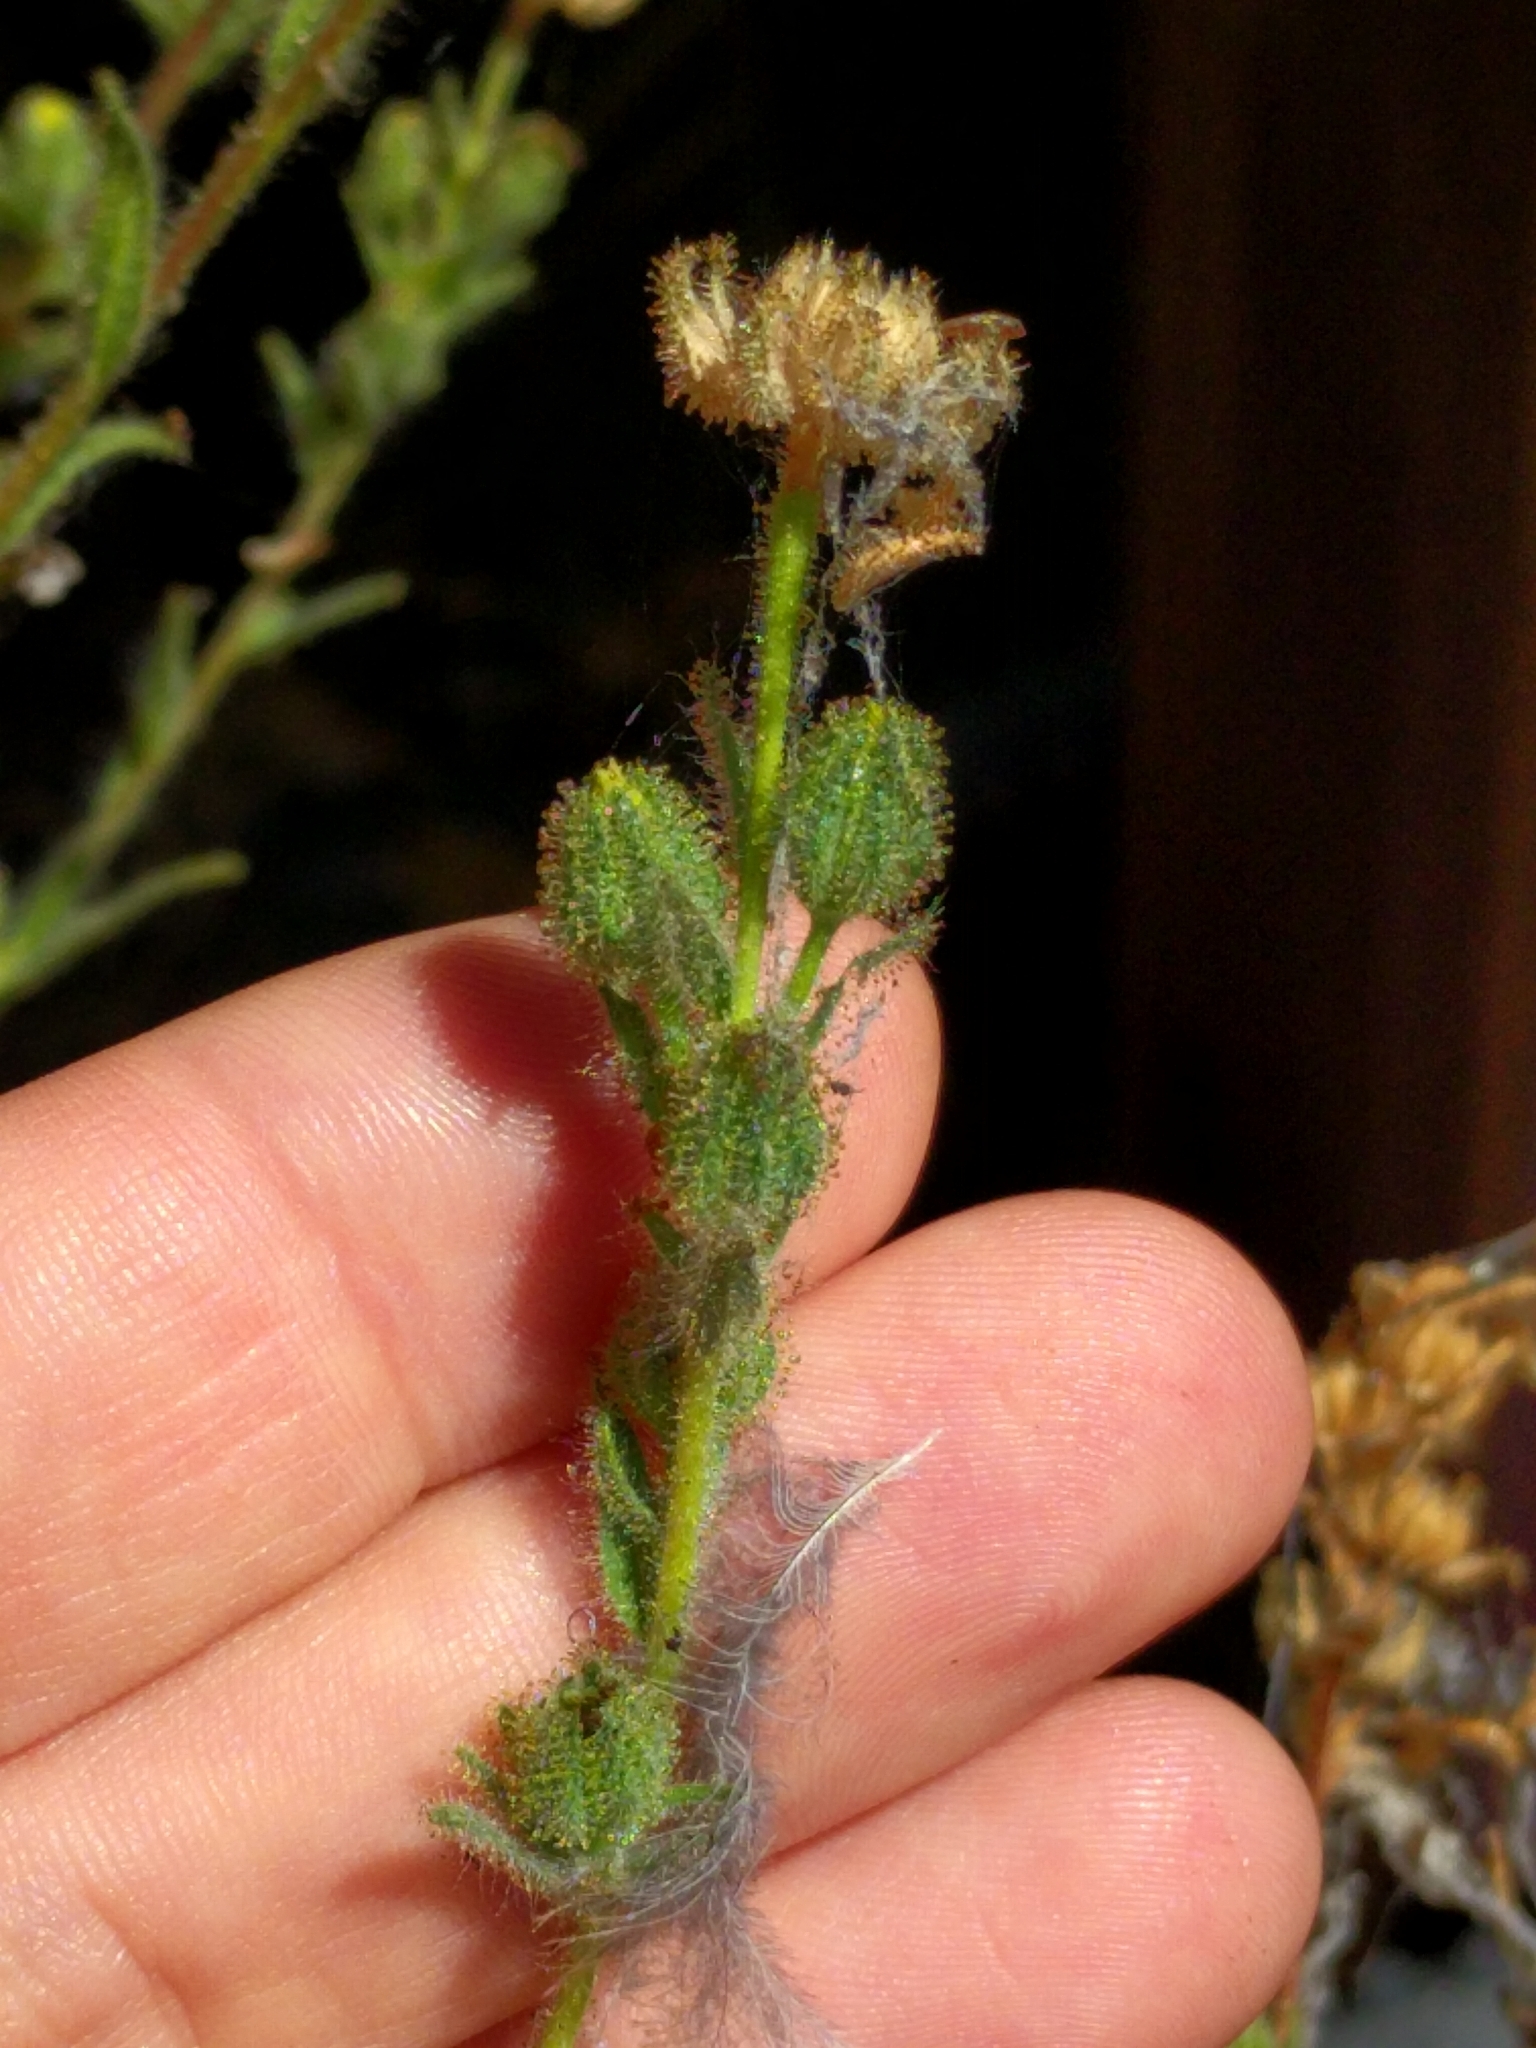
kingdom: Plantae
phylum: Tracheophyta
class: Magnoliopsida
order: Asterales
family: Asteraceae
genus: Madia
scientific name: Madia sativa
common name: Coast tarweed
